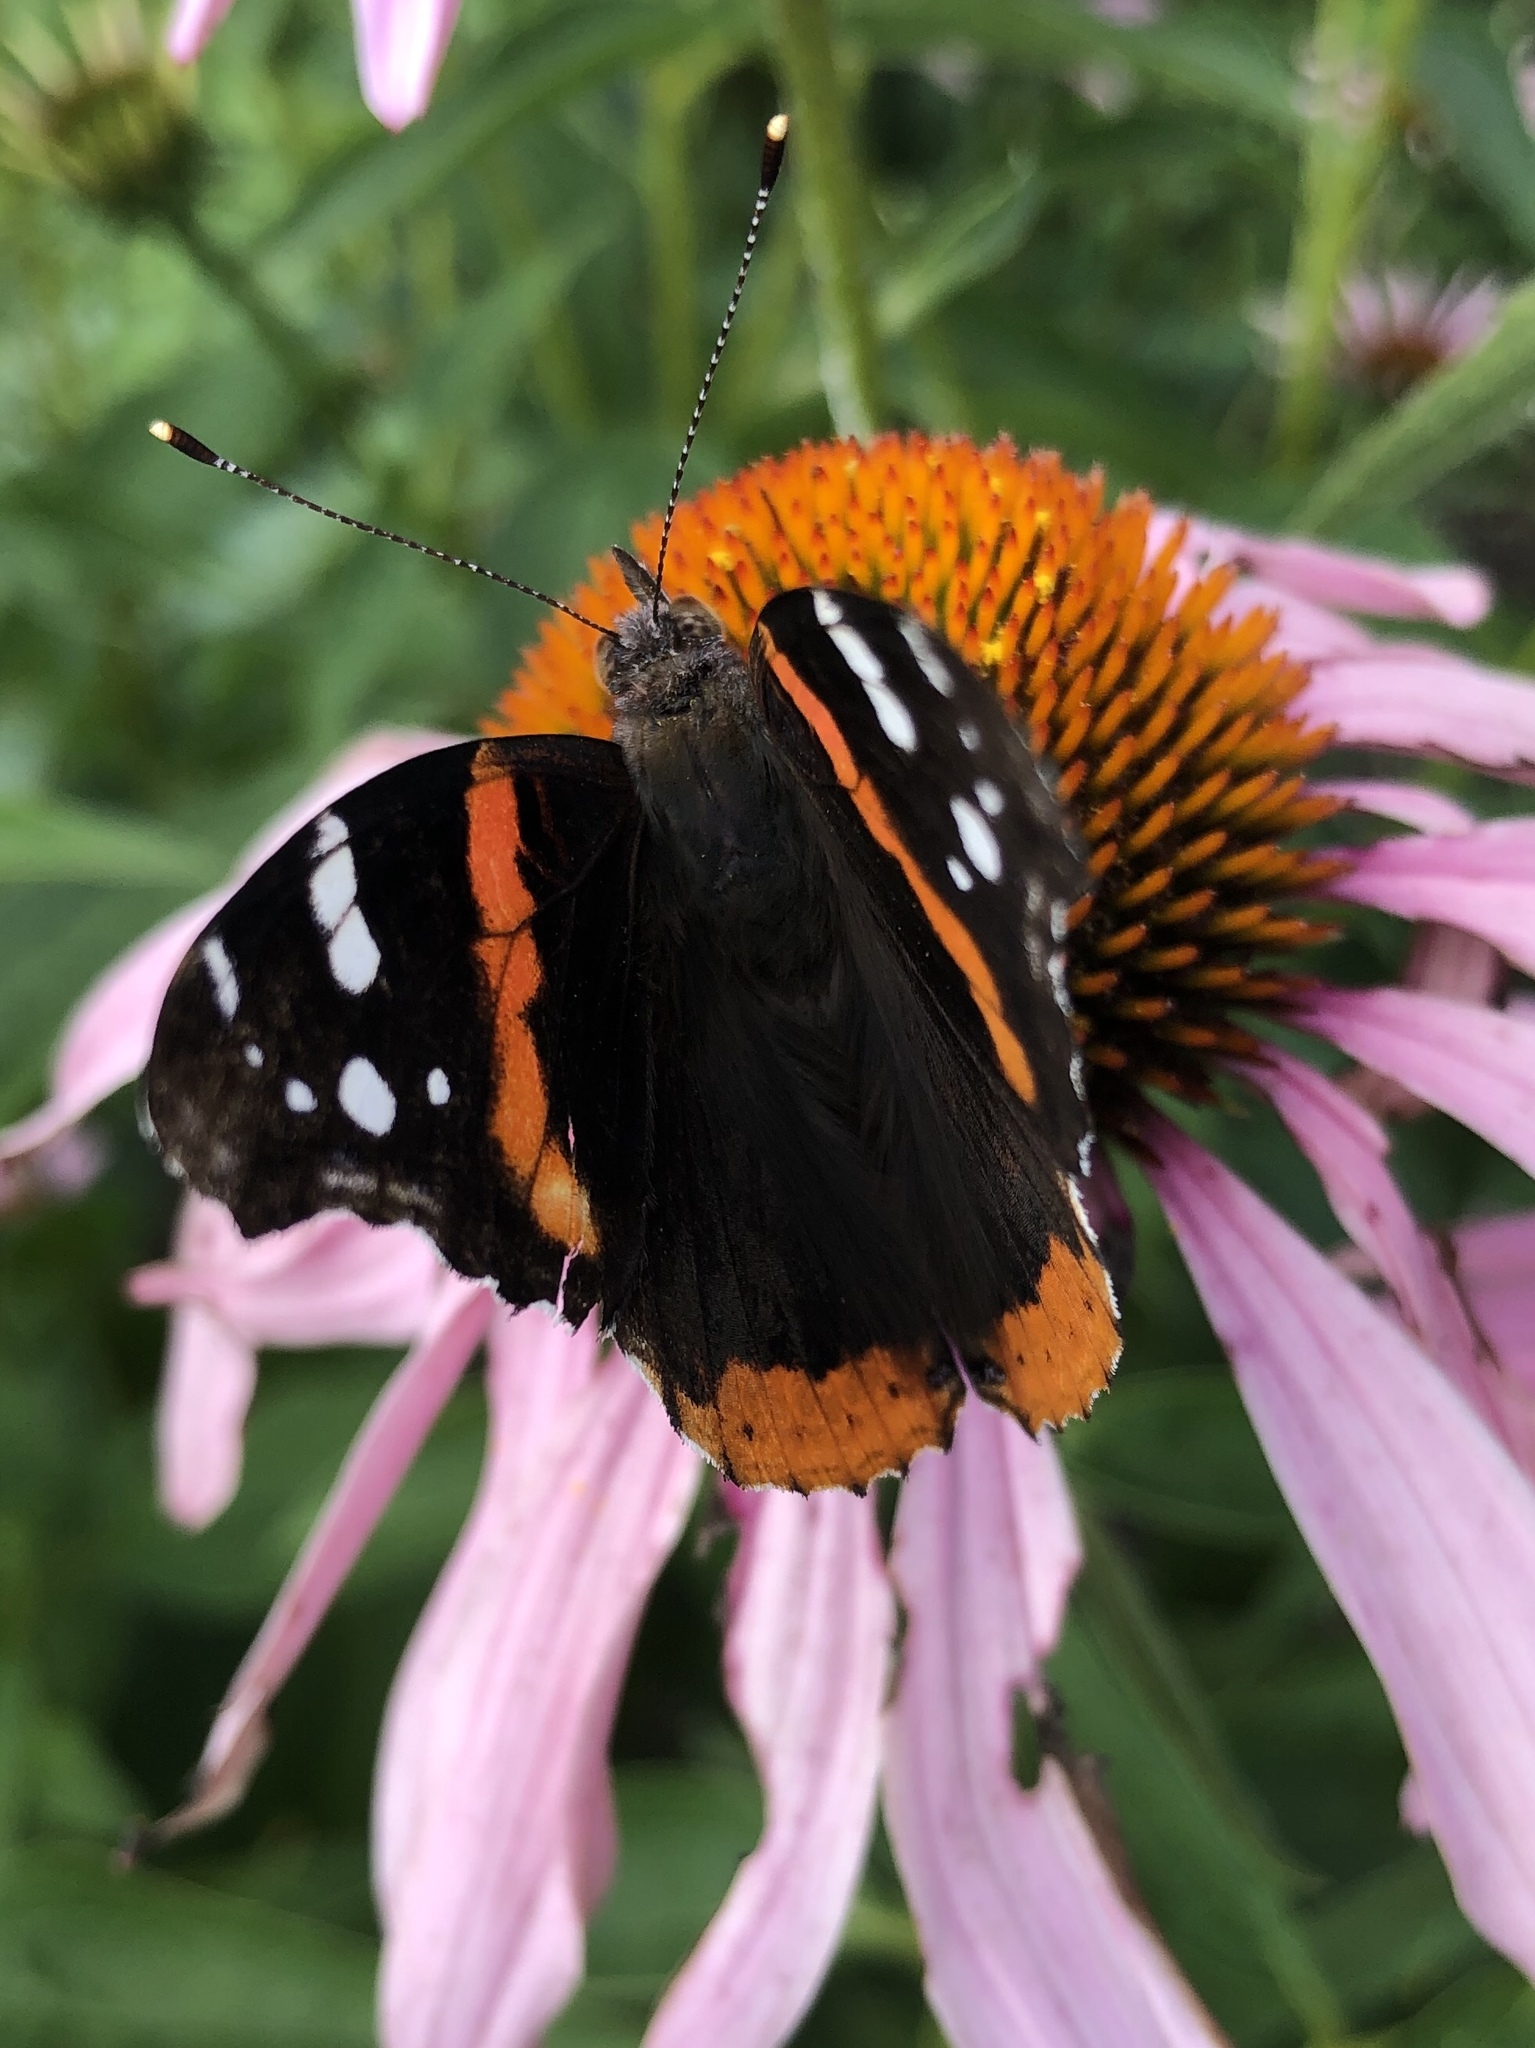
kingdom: Animalia
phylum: Arthropoda
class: Insecta
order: Lepidoptera
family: Nymphalidae
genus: Vanessa
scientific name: Vanessa atalanta
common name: Red admiral
